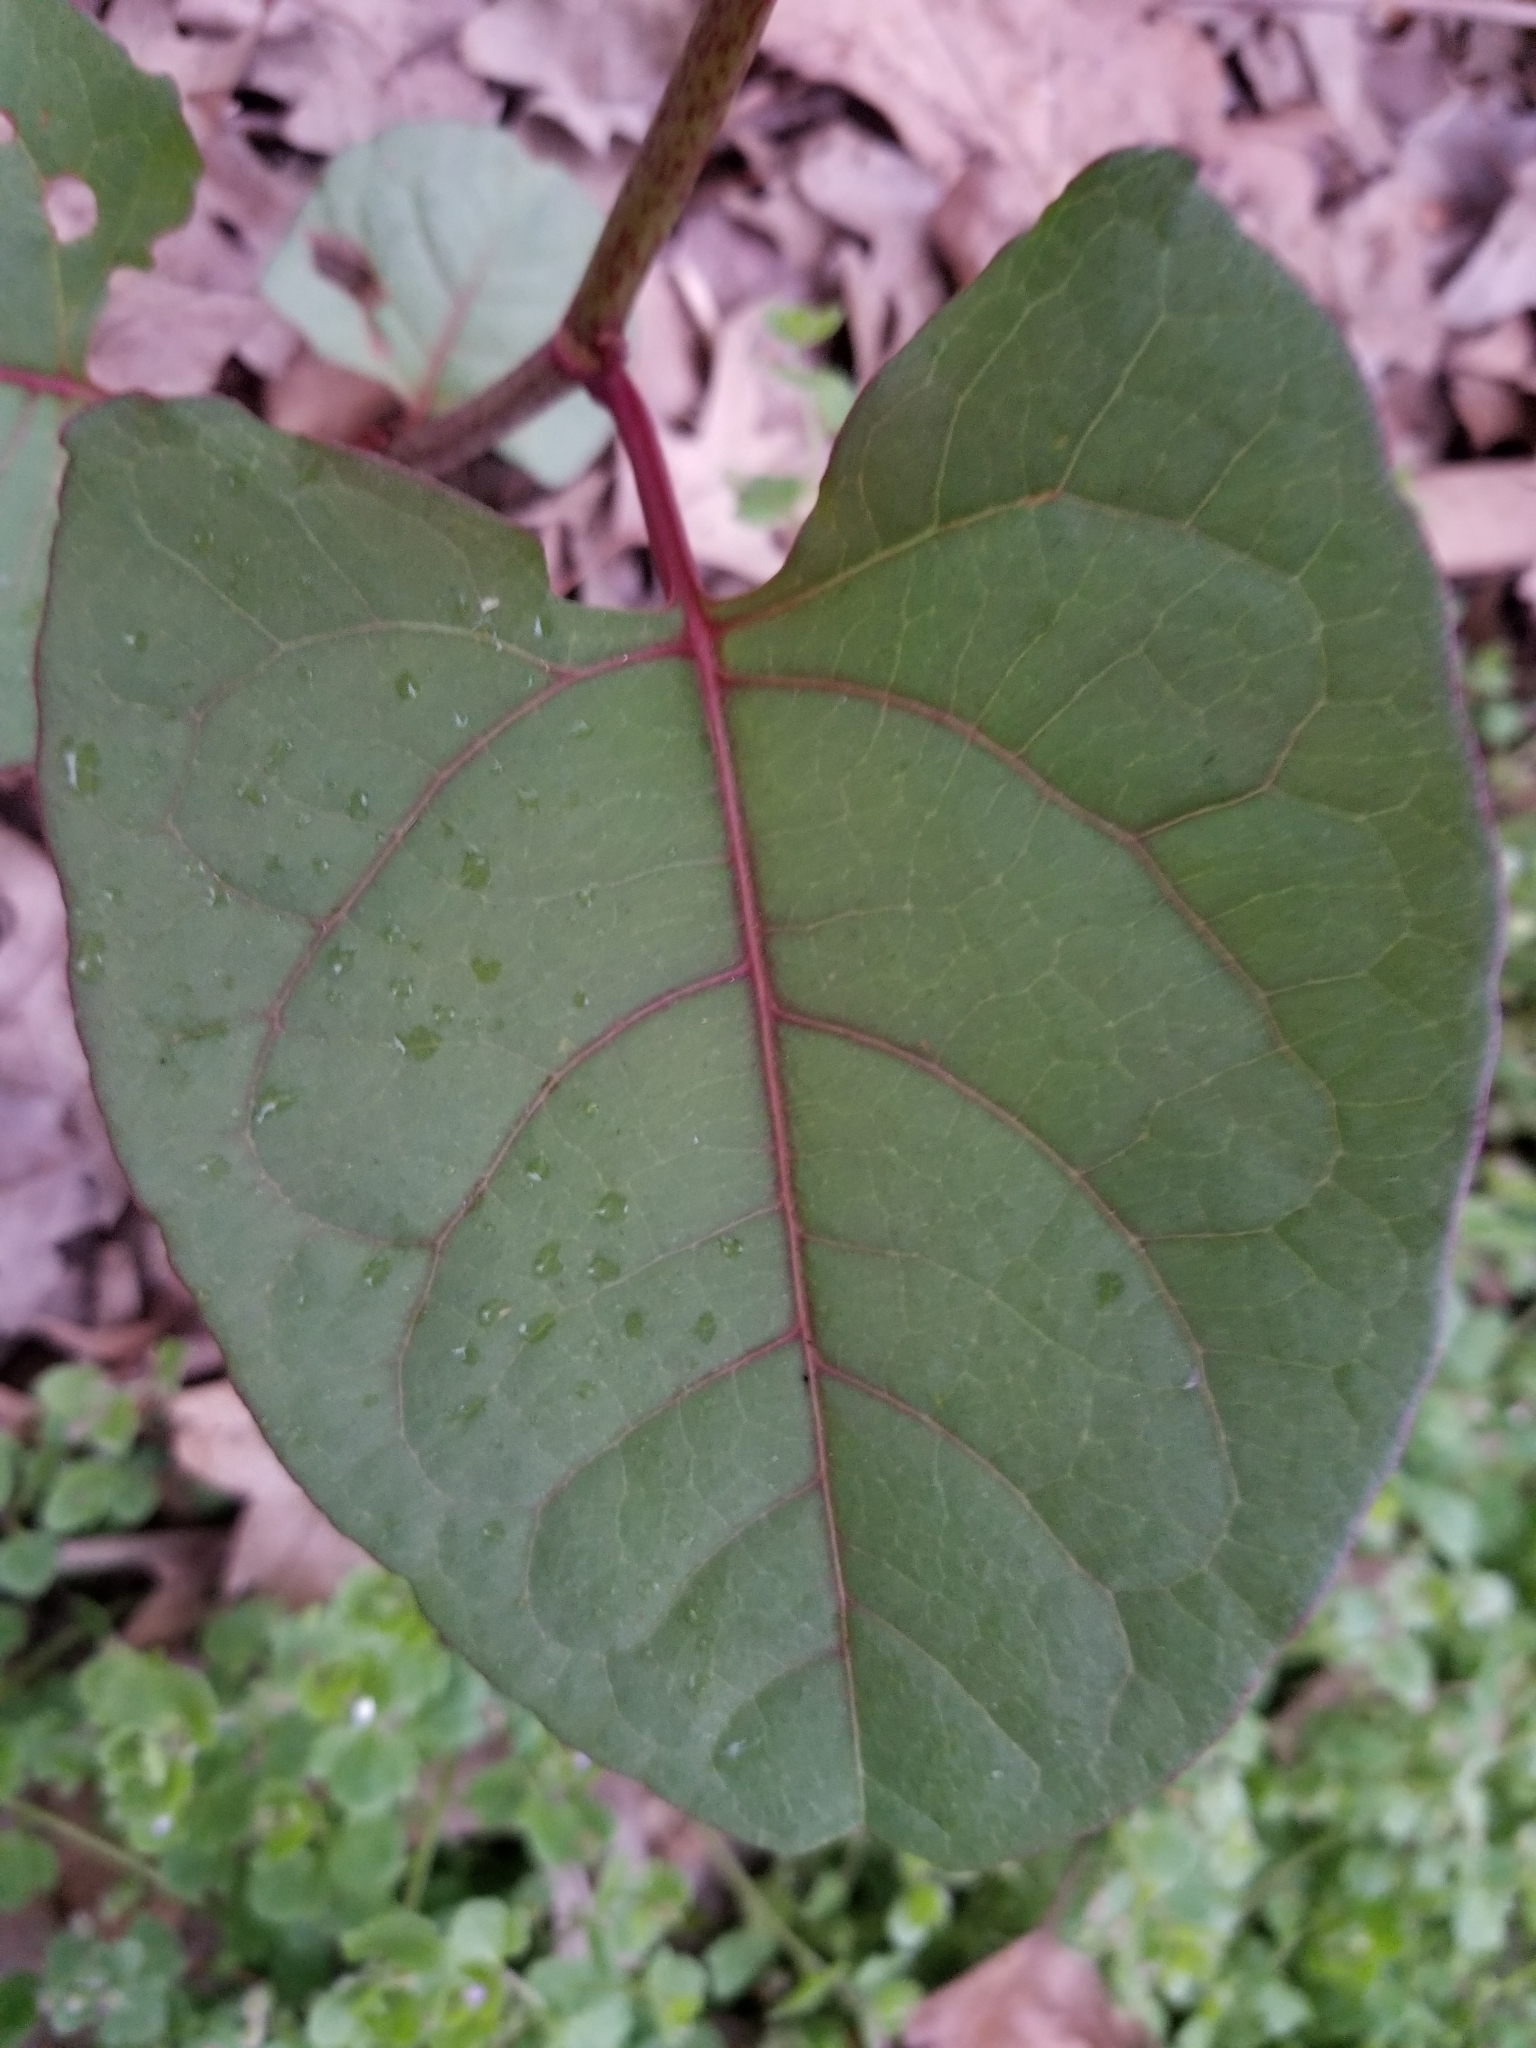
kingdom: Plantae
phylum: Tracheophyta
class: Magnoliopsida
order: Caryophyllales
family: Polygonaceae
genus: Reynoutria
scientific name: Reynoutria japonica
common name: Japanese knotweed
